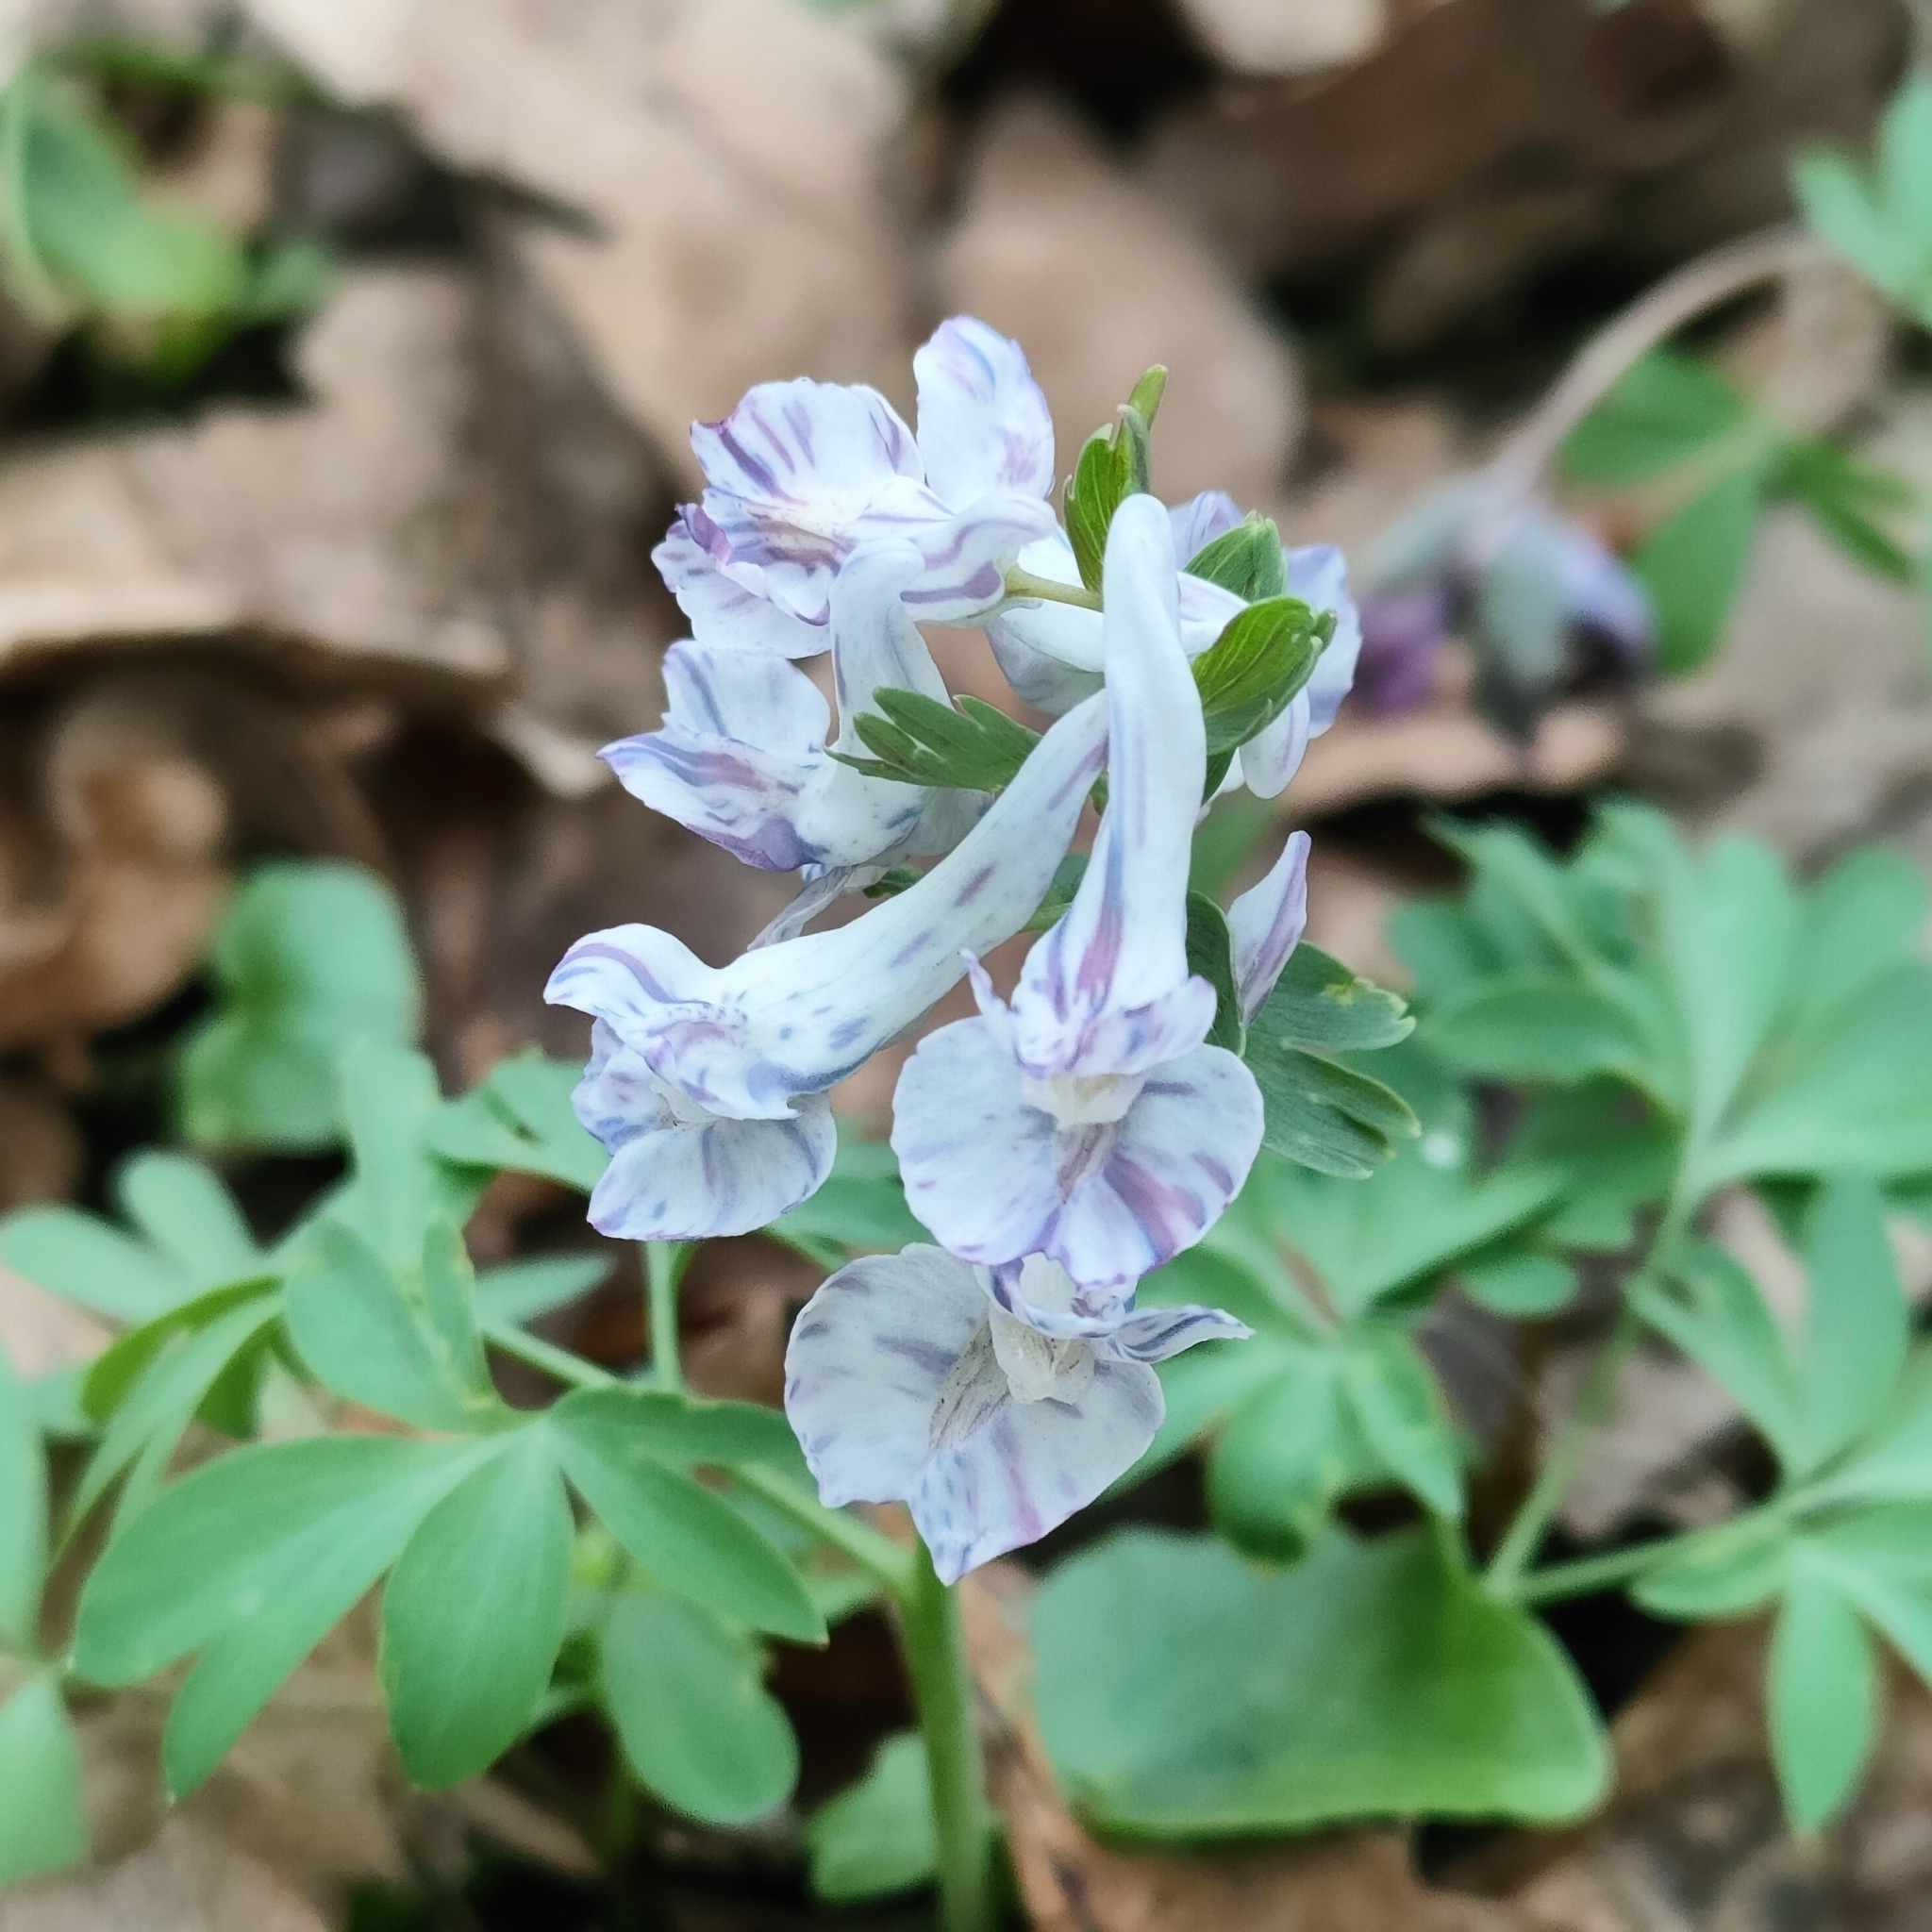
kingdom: Plantae
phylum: Tracheophyta
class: Magnoliopsida
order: Ranunculales
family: Papaveraceae
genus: Corydalis
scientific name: Corydalis solida
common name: Bird-in-a-bush
